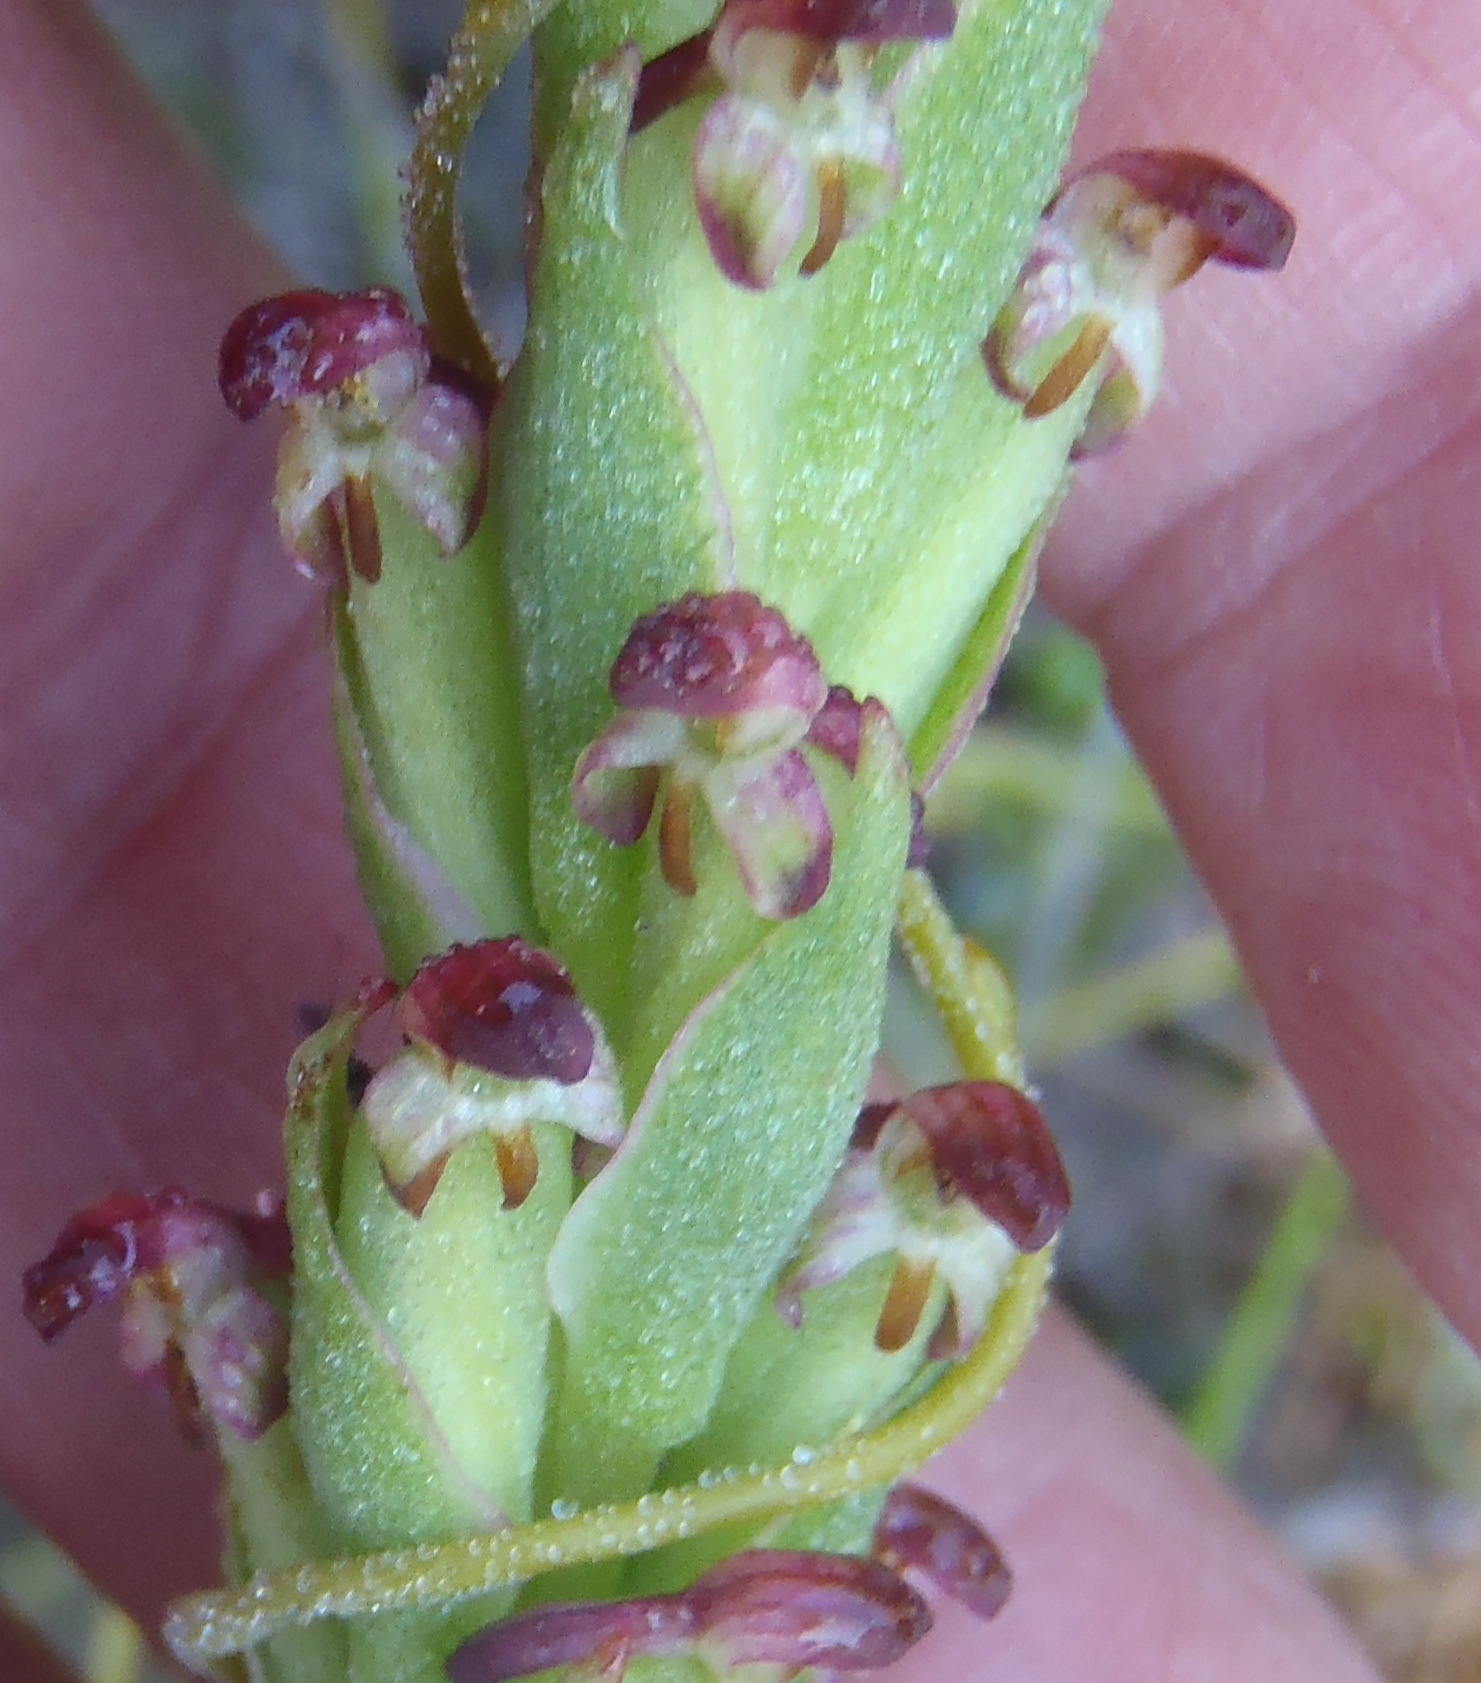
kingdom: Plantae
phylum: Tracheophyta
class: Liliopsida
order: Asparagales
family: Orchidaceae
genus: Disa
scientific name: Disa bracteata
